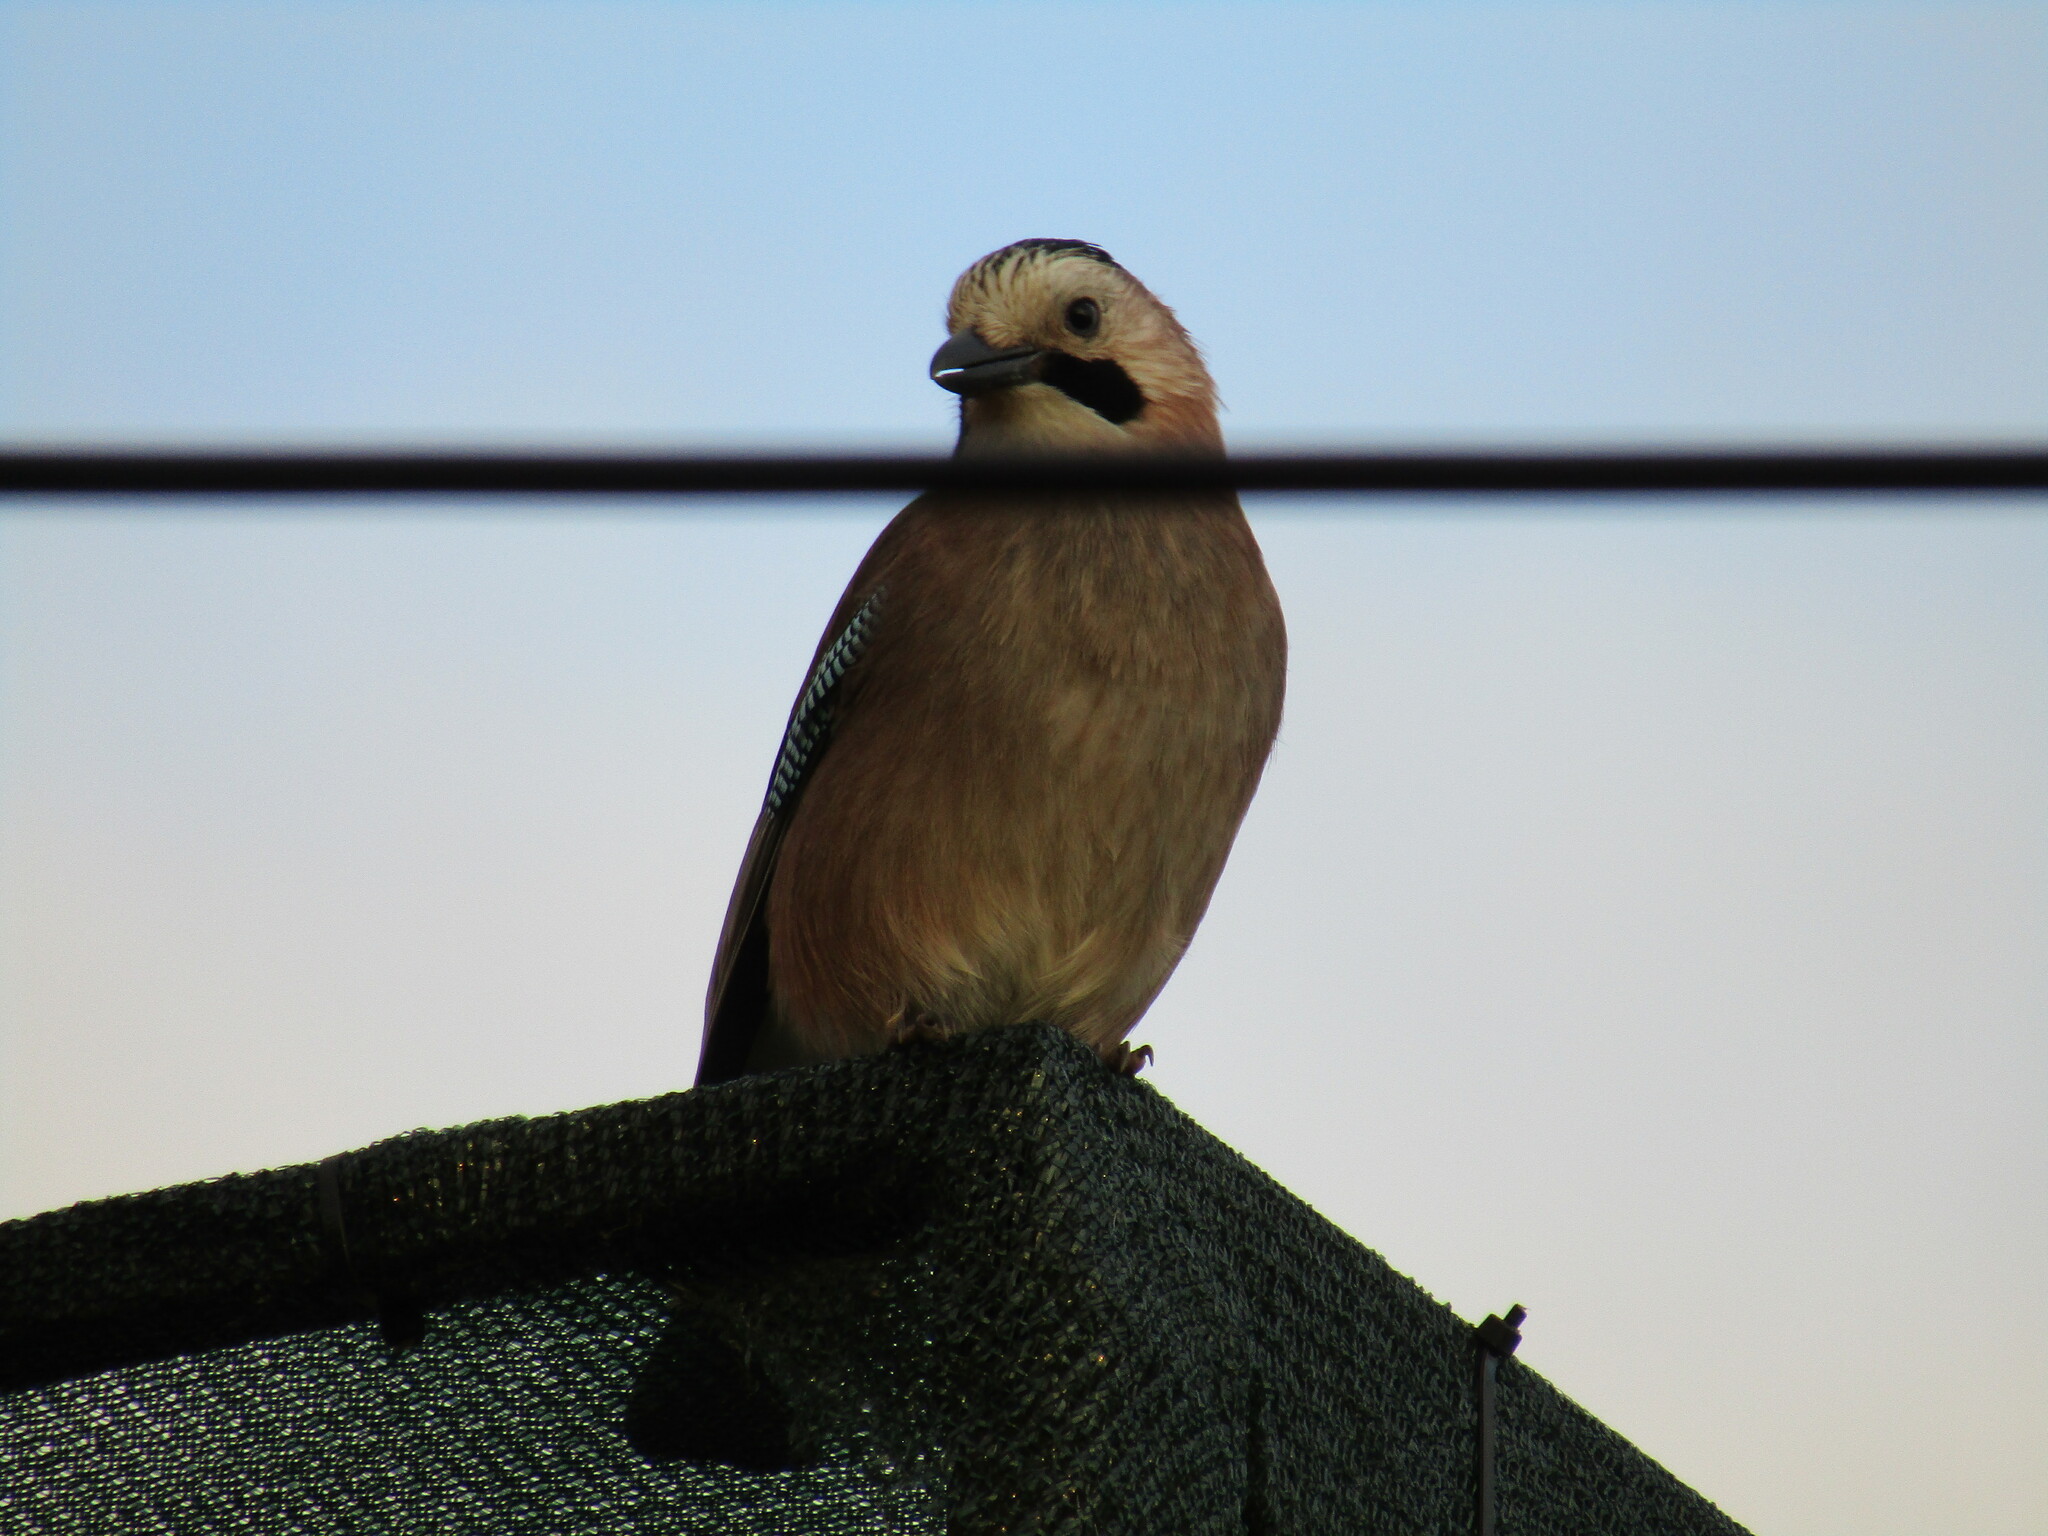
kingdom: Animalia
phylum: Chordata
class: Aves
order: Passeriformes
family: Corvidae
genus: Garrulus
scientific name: Garrulus glandarius
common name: Eurasian jay
